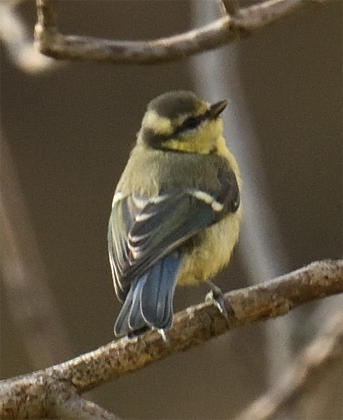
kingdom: Animalia
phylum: Chordata
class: Aves
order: Passeriformes
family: Paridae
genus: Cyanistes
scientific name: Cyanistes caeruleus
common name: Eurasian blue tit
